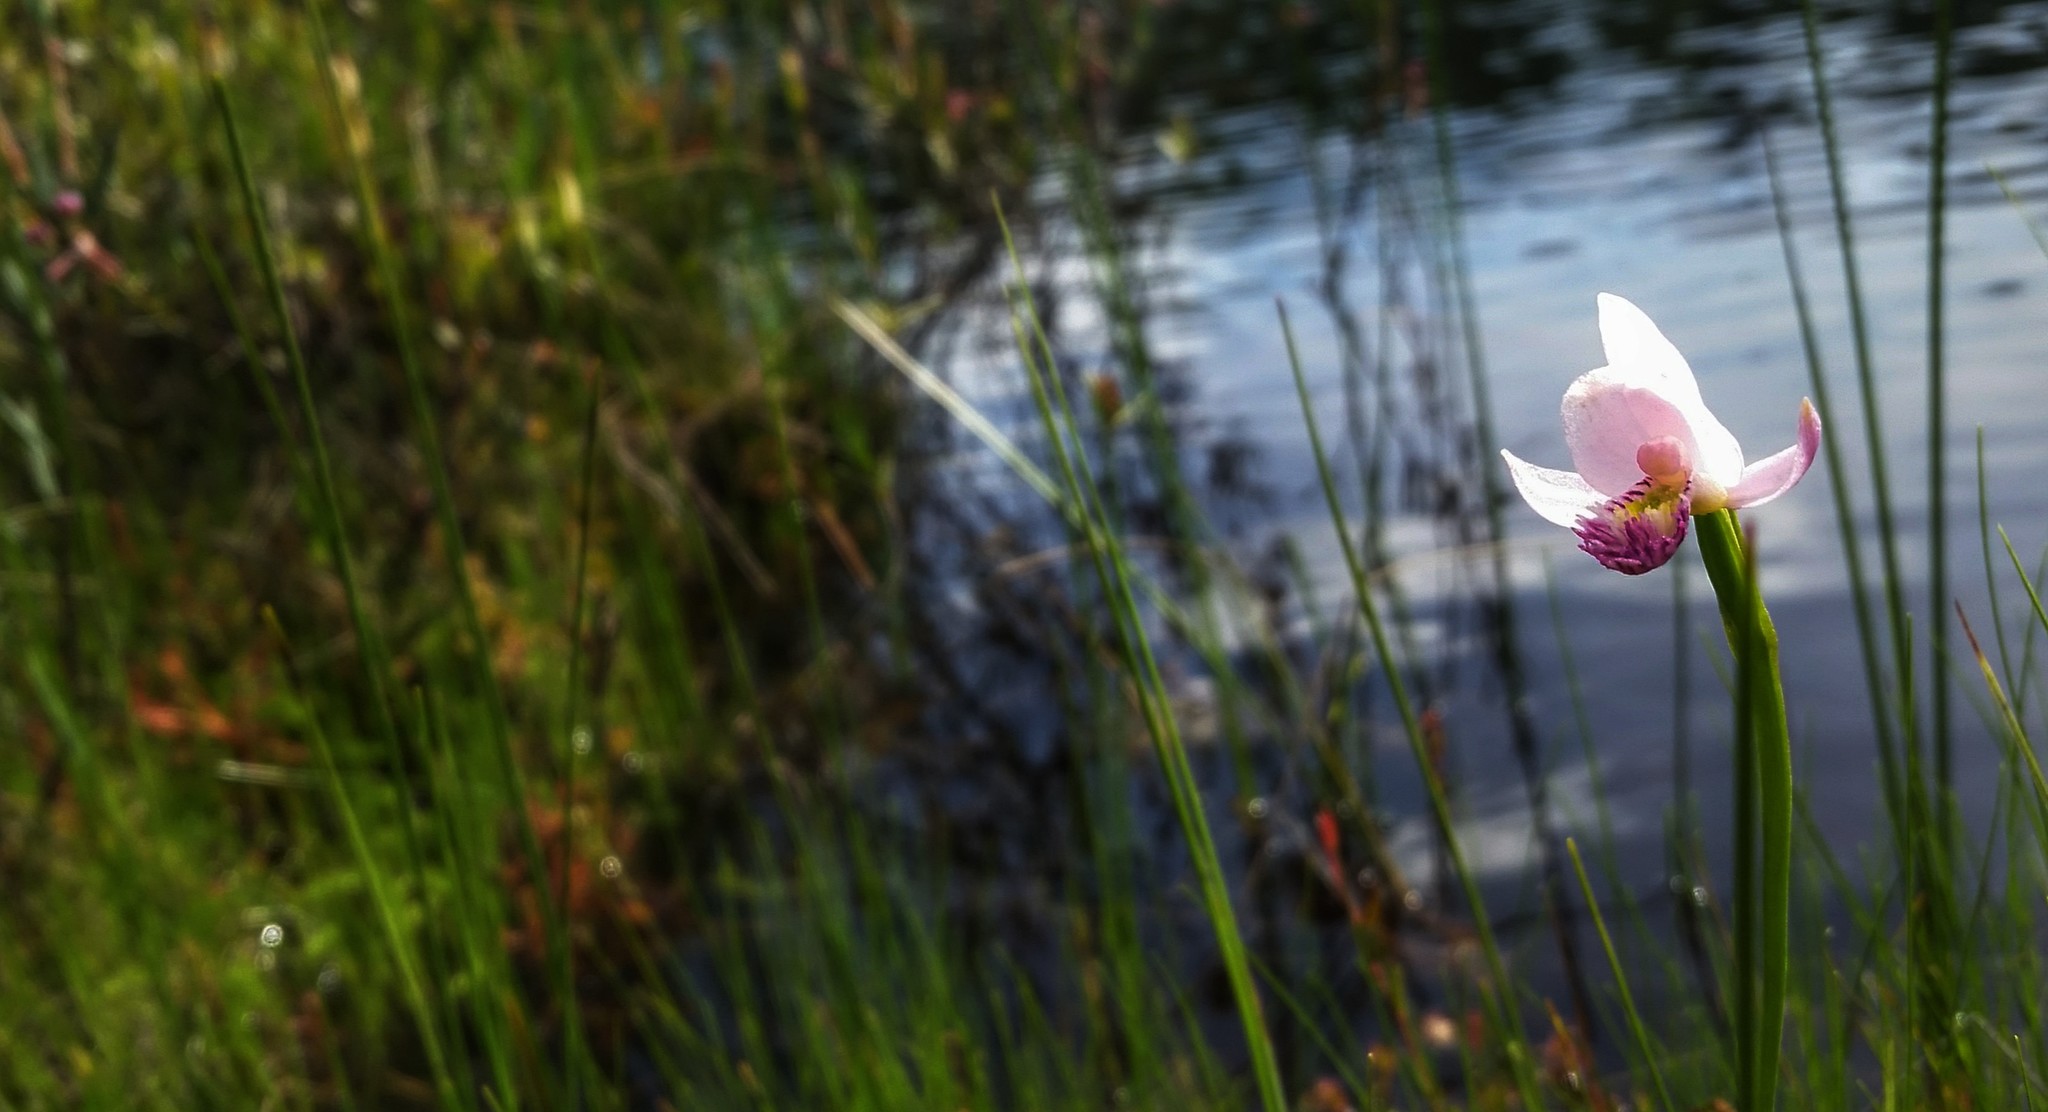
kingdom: Plantae
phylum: Tracheophyta
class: Liliopsida
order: Asparagales
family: Orchidaceae
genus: Pogonia
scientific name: Pogonia ophioglossoides
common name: Rose pogonia
